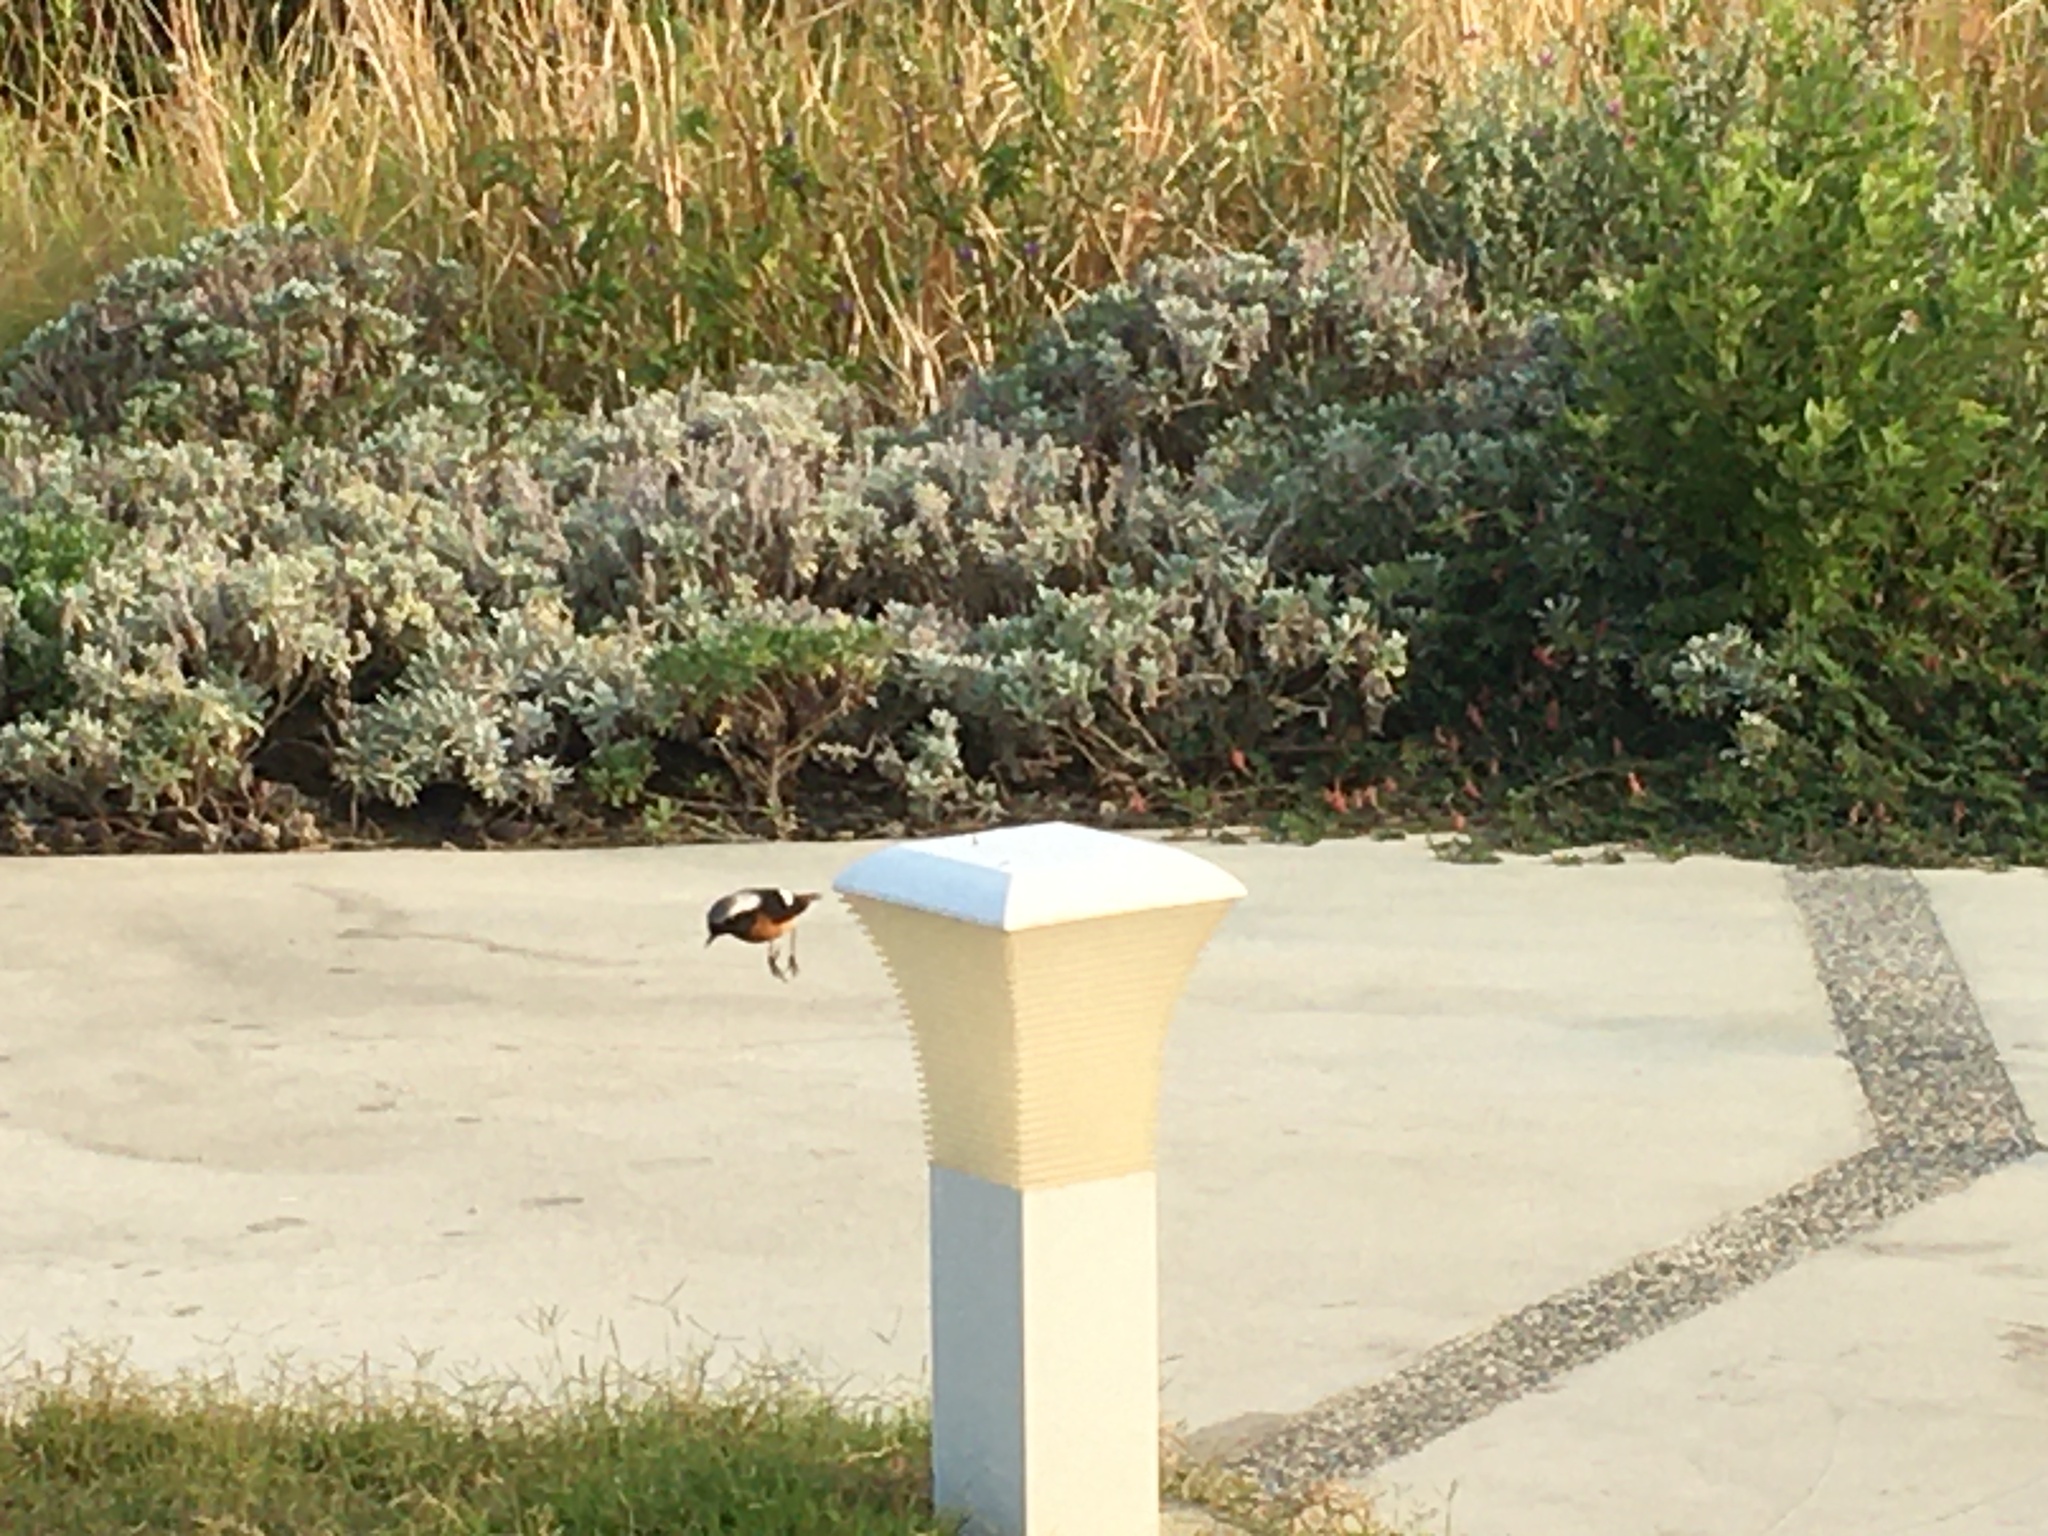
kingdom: Animalia
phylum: Chordata
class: Aves
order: Passeriformes
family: Hirundinidae
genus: Hirundo
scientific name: Hirundo rustica
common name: Barn swallow
